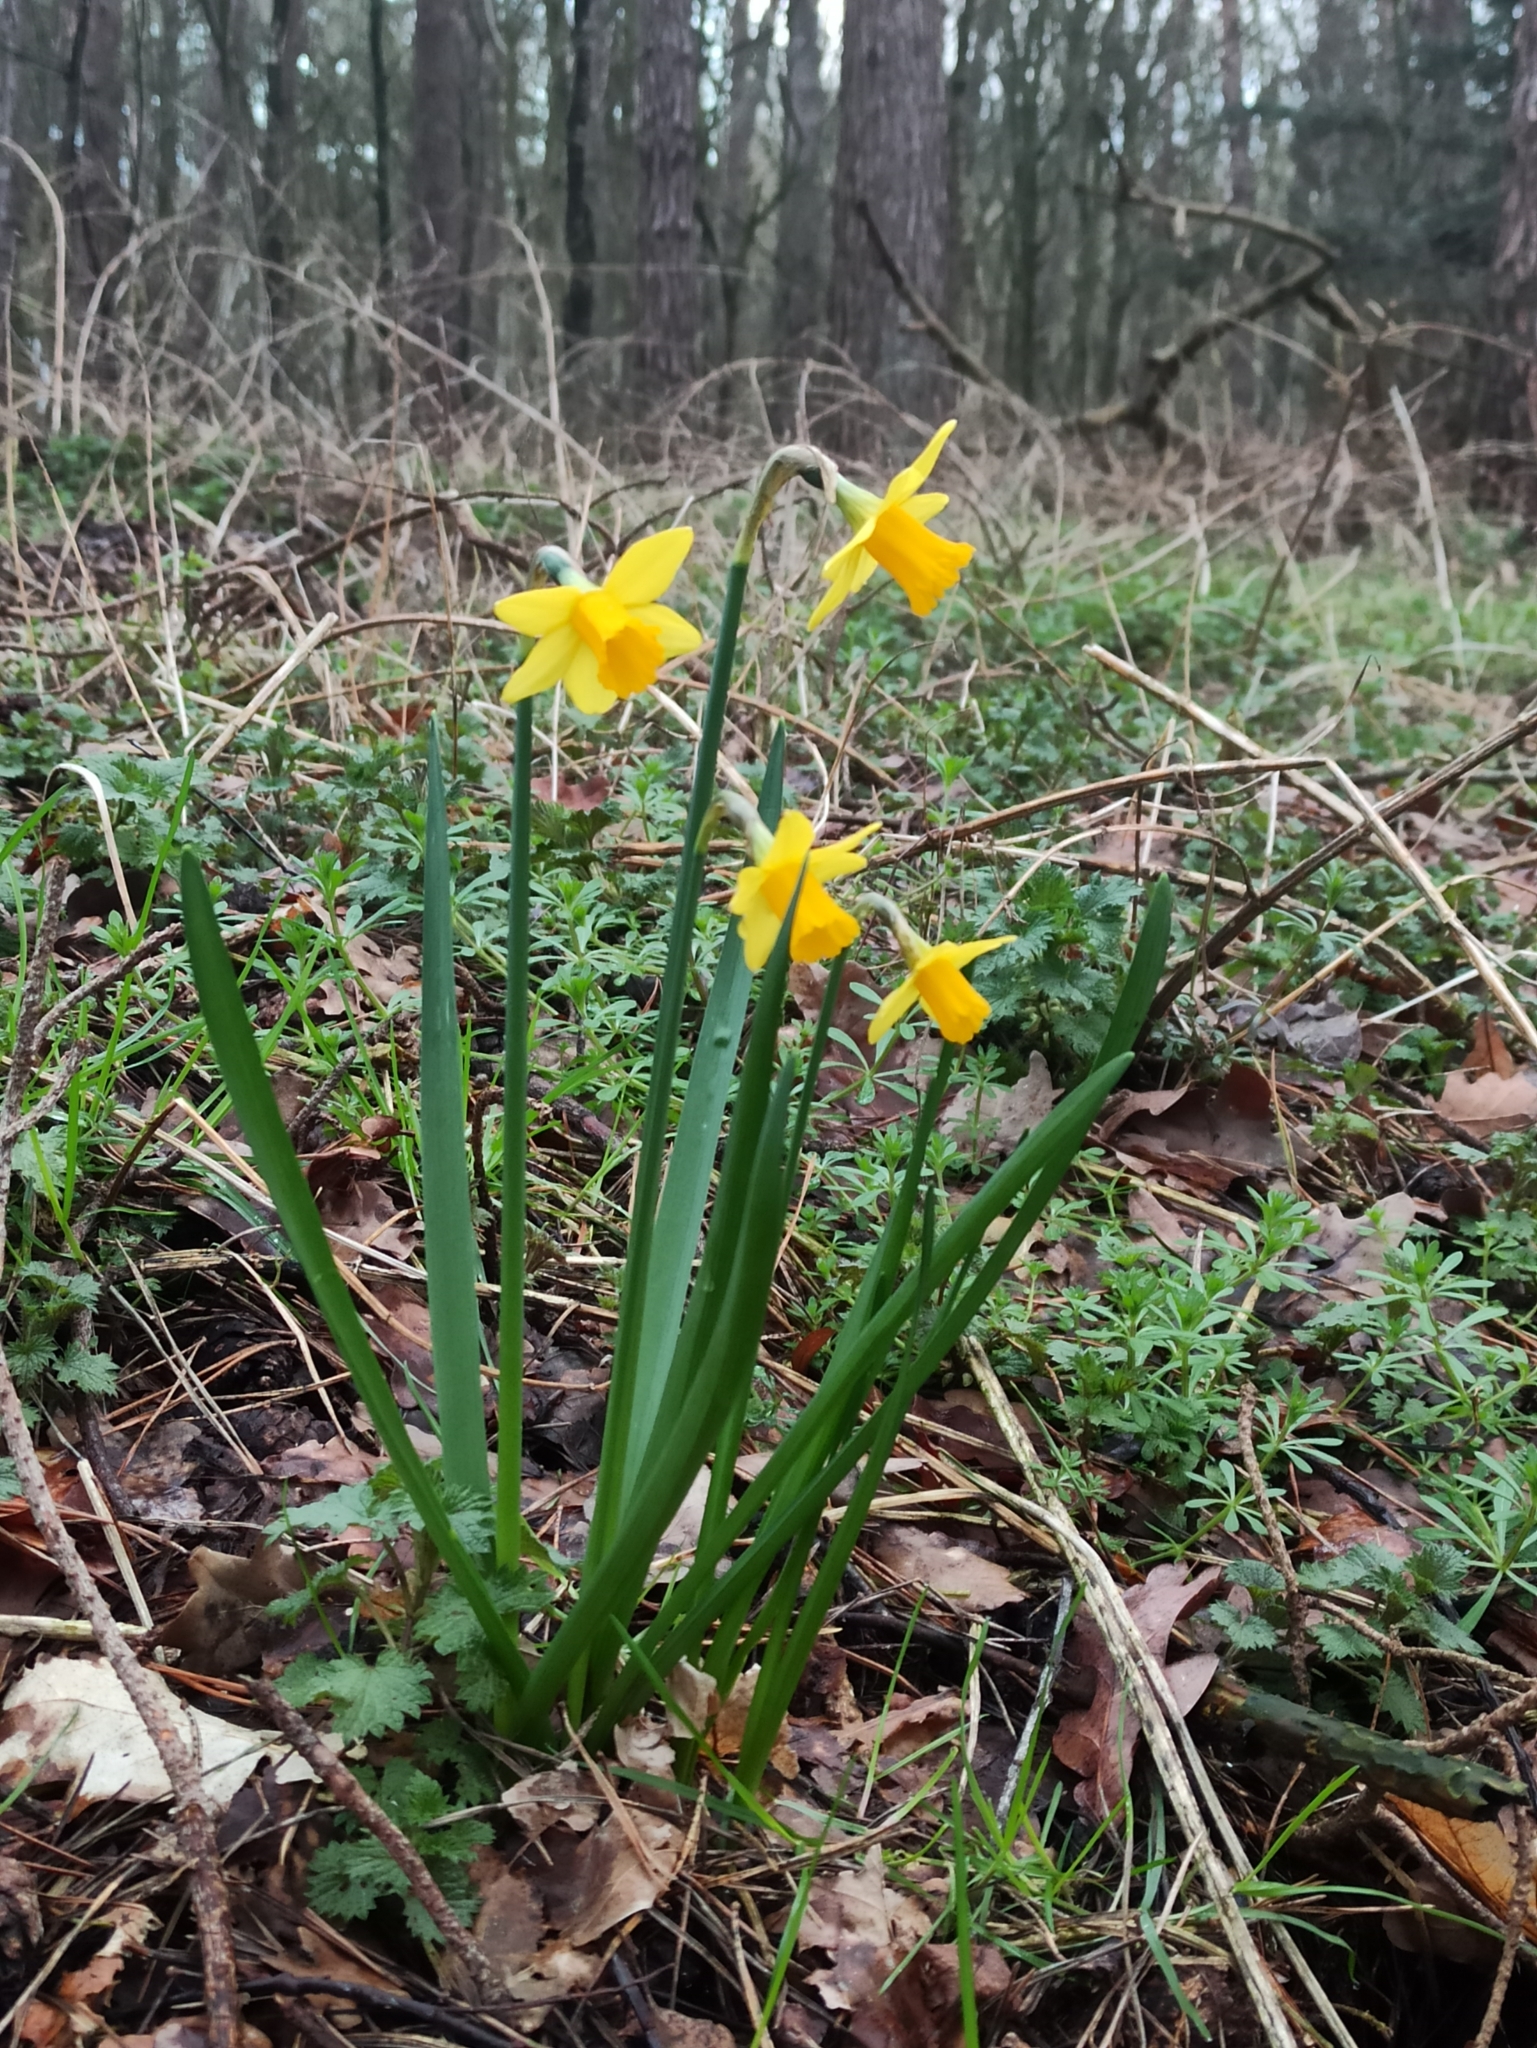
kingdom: Plantae
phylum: Tracheophyta
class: Liliopsida
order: Asparagales
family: Amaryllidaceae
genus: Narcissus
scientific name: Narcissus pseudonarcissus
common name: Daffodil
